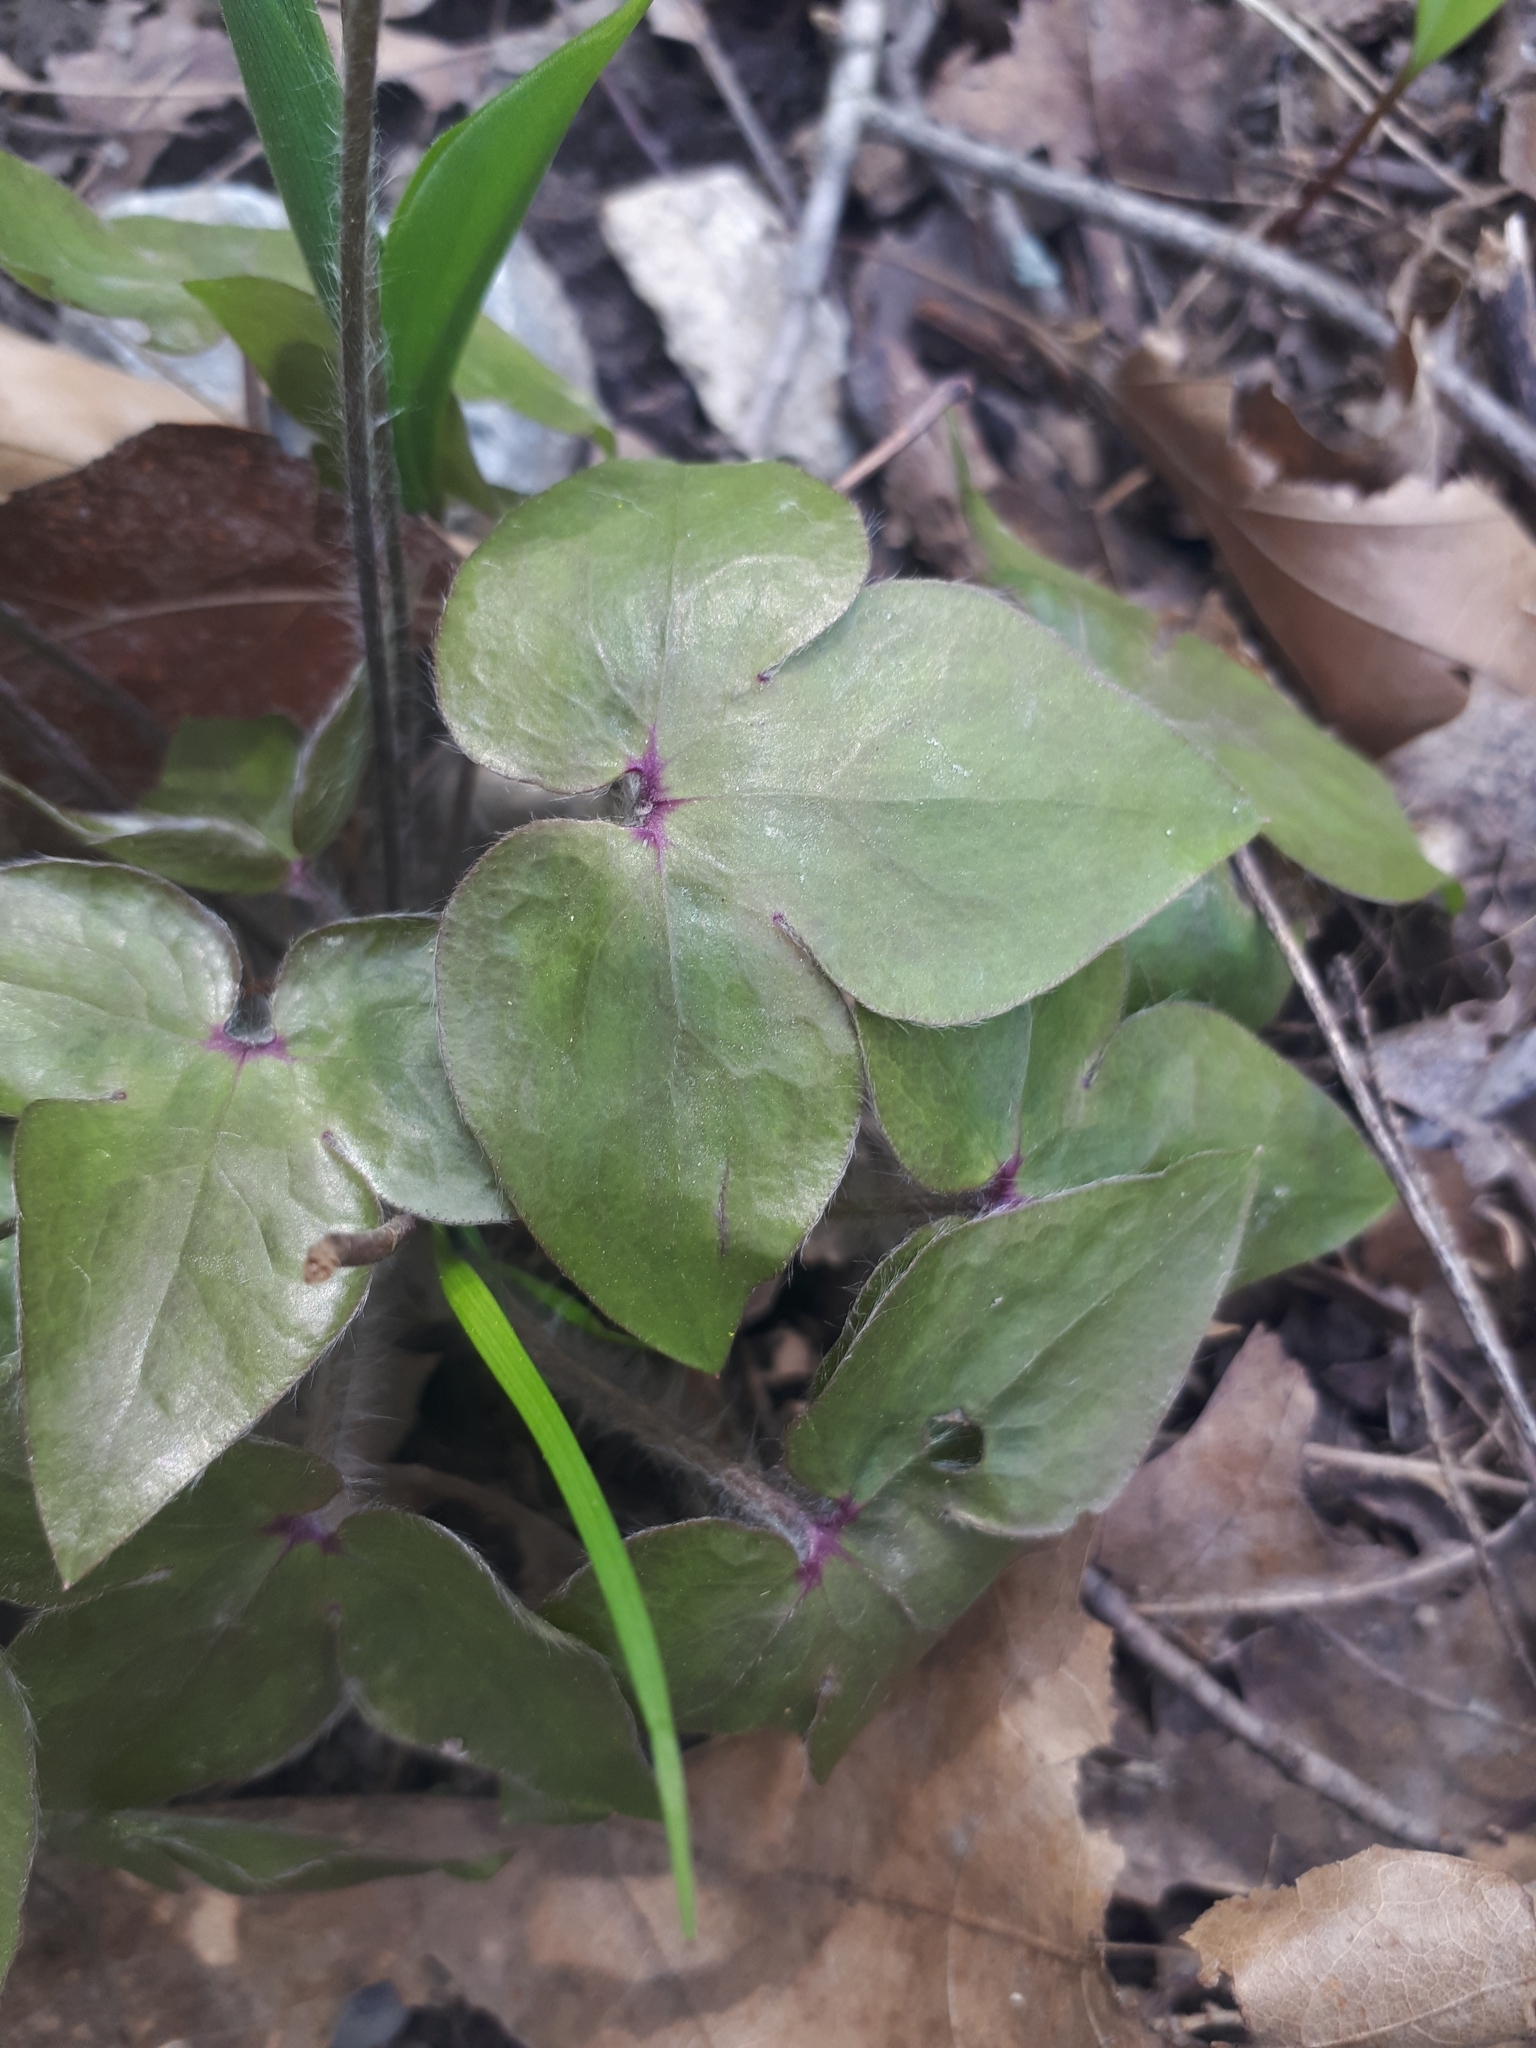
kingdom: Plantae
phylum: Tracheophyta
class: Magnoliopsida
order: Ranunculales
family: Ranunculaceae
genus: Hepatica
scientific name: Hepatica acutiloba
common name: Sharp-lobed hepatica
